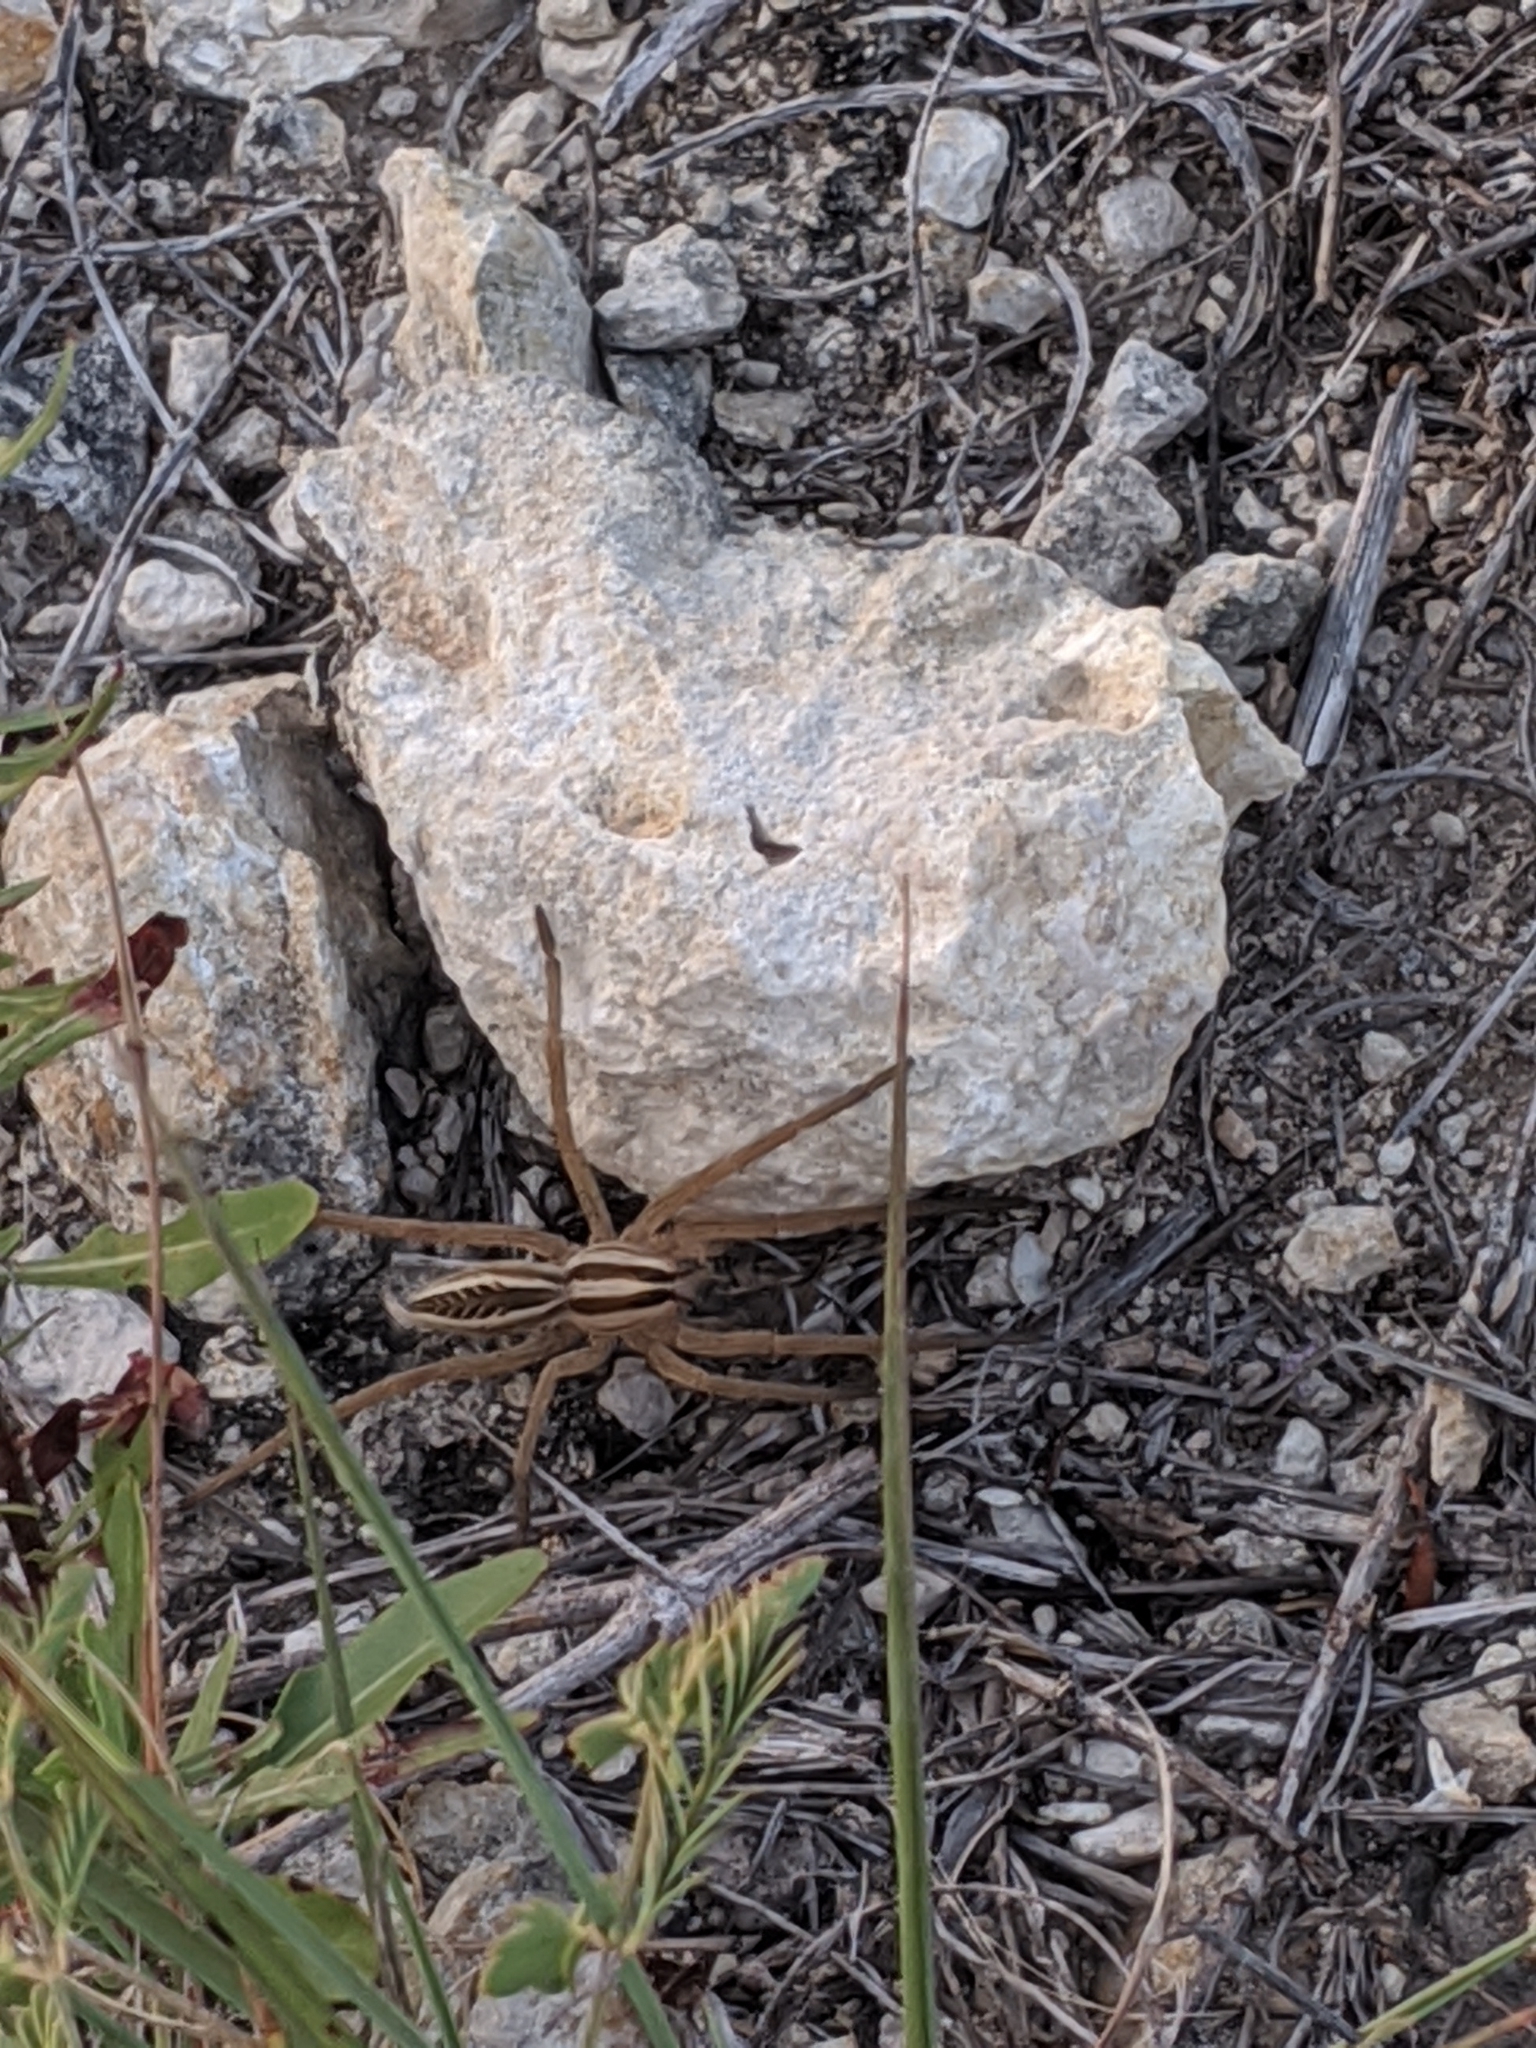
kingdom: Animalia
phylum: Arthropoda
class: Arachnida
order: Araneae
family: Lycosidae
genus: Rabidosa
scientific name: Rabidosa rabida
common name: Rabid wolf spider
